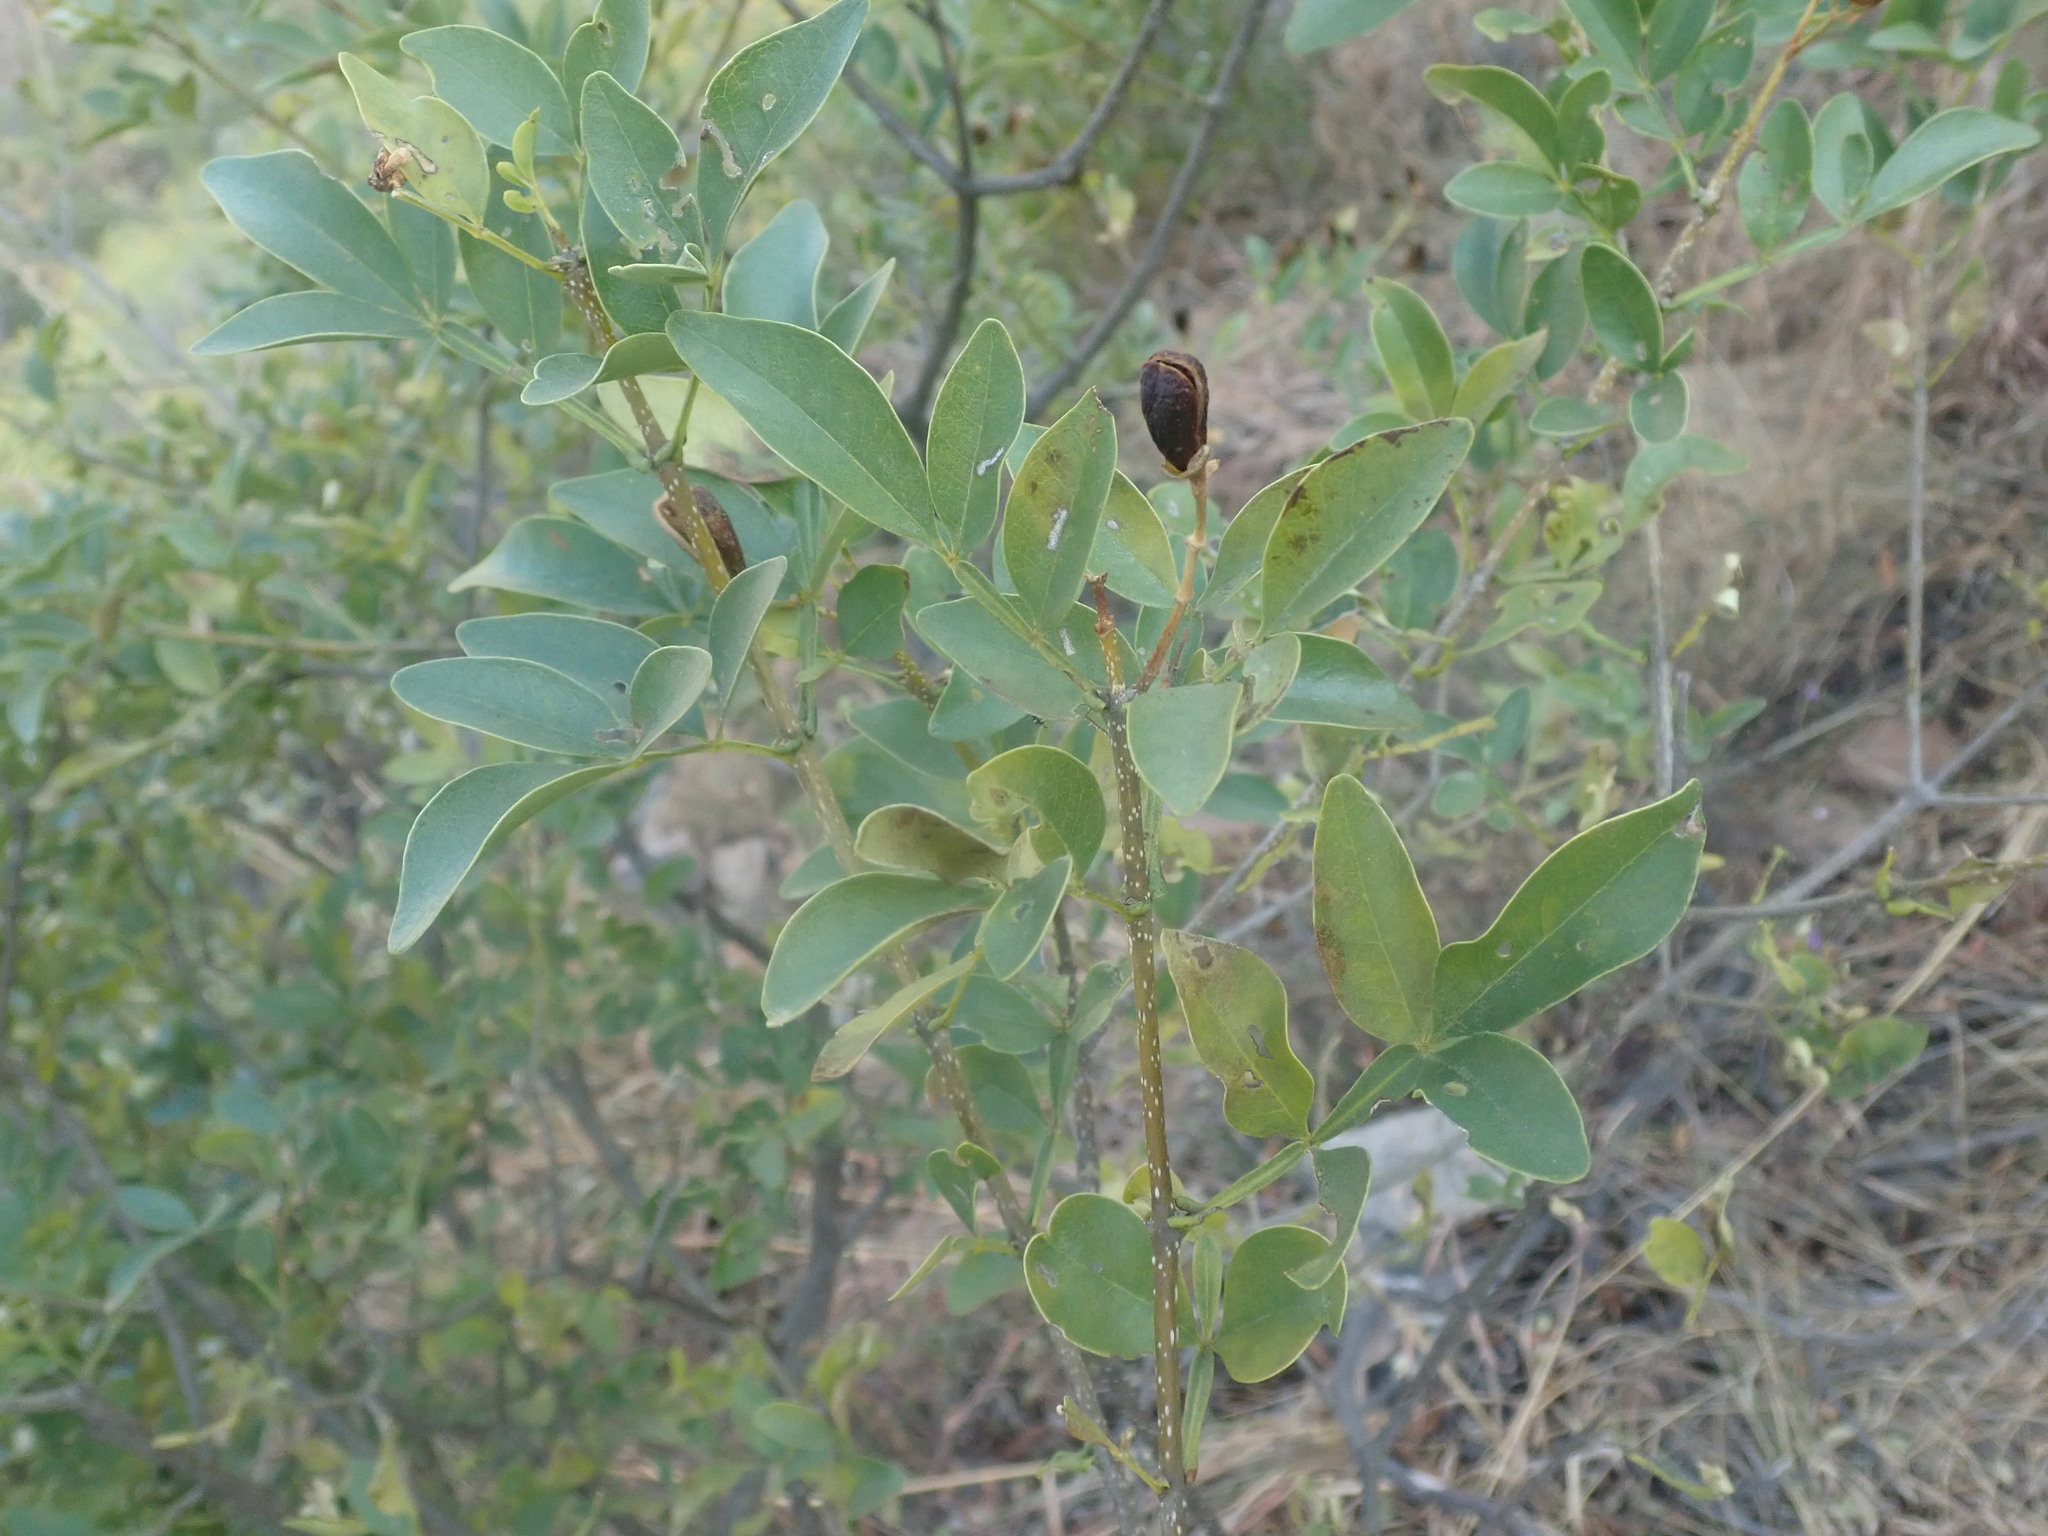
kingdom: Plantae
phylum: Tracheophyta
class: Magnoliopsida
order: Lamiales
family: Oleaceae
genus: Schrebera
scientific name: Schrebera alata
